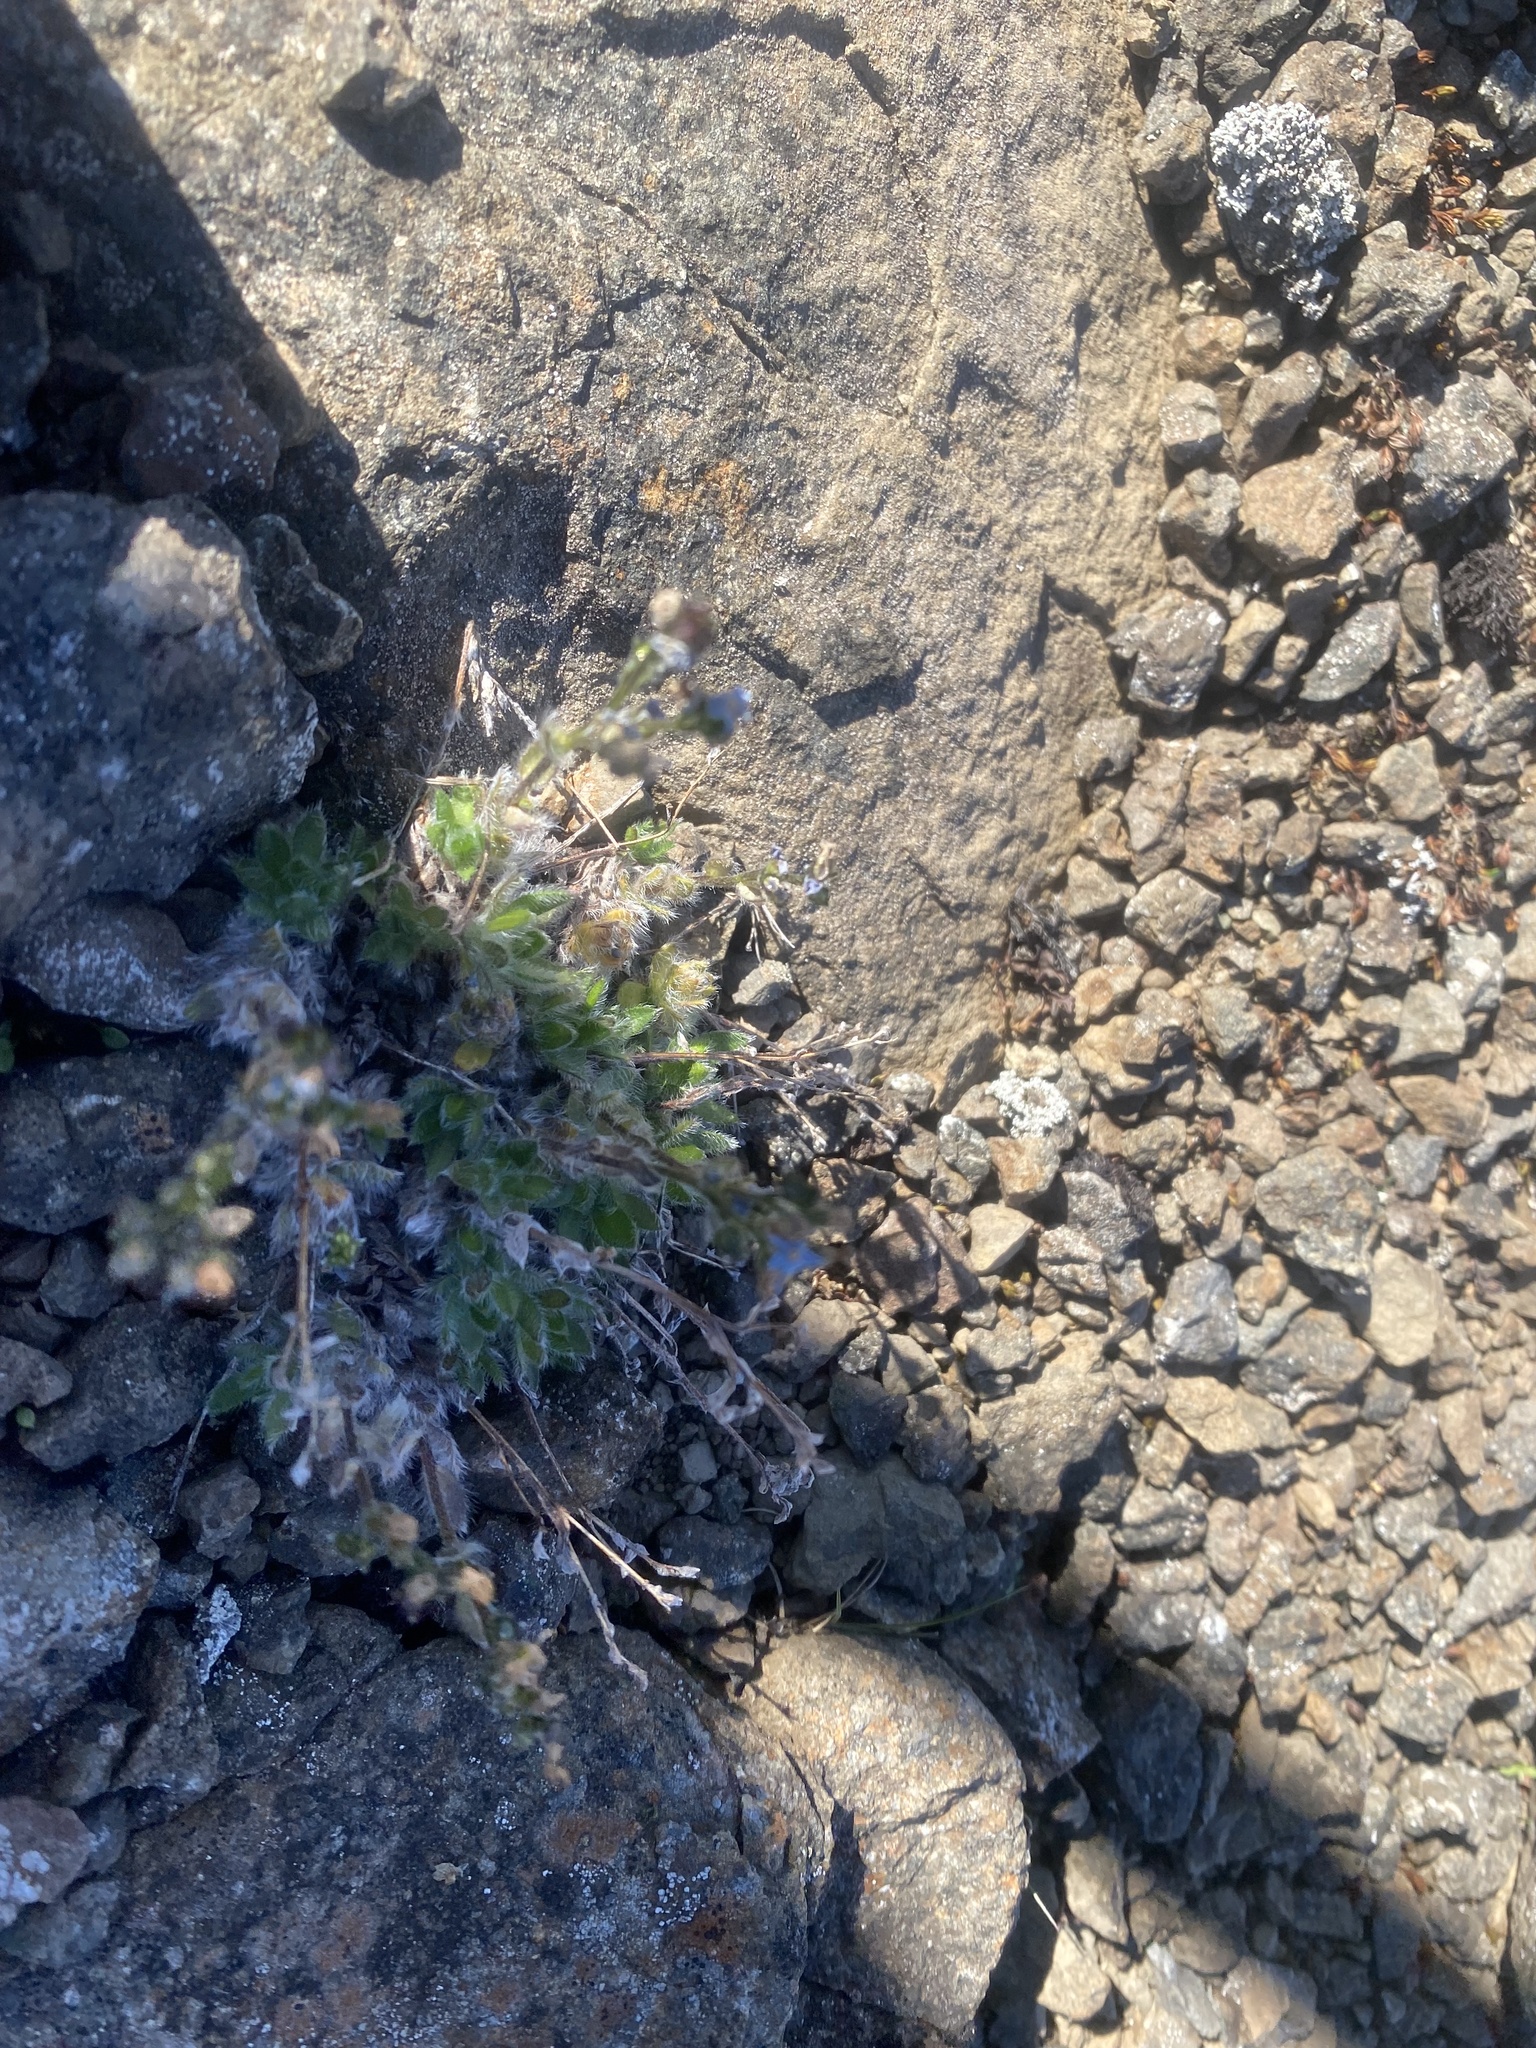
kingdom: Plantae
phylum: Tracheophyta
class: Magnoliopsida
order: Boraginales
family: Boraginaceae
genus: Eritrichium
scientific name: Eritrichium villosum
